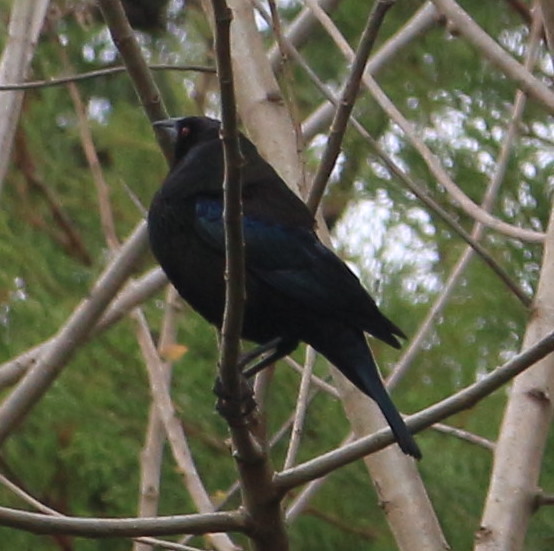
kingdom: Animalia
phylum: Chordata
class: Aves
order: Passeriformes
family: Icteridae
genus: Molothrus
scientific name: Molothrus aeneus
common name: Bronzed cowbird
